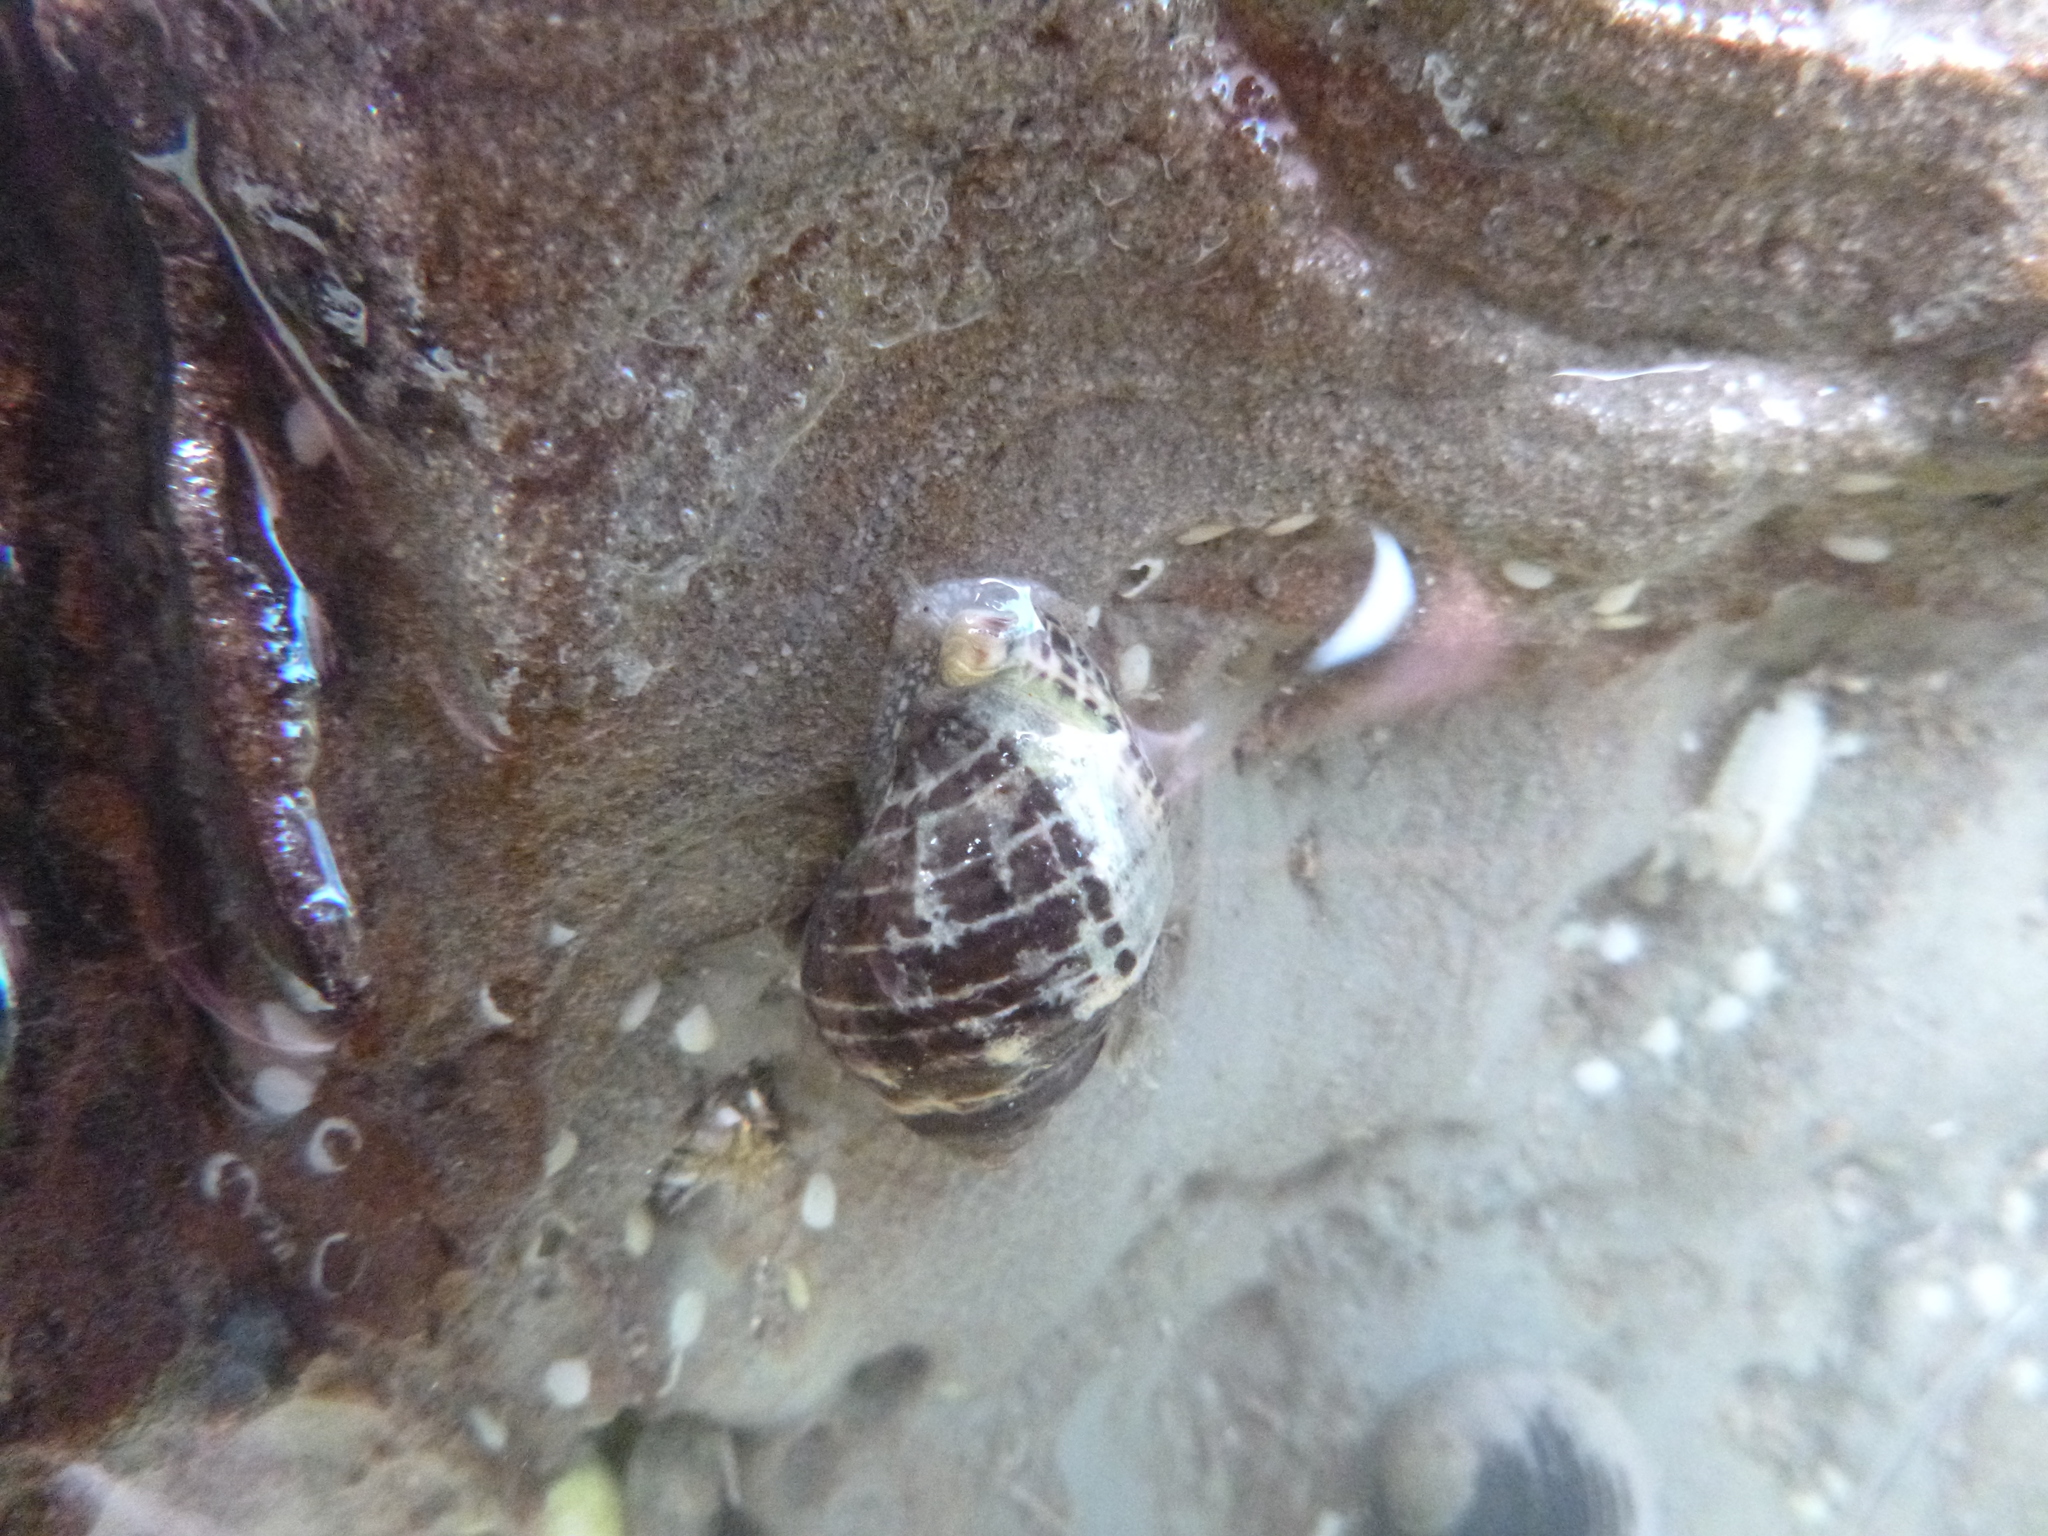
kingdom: Animalia
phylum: Mollusca
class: Gastropoda
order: Neogastropoda
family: Muricidae
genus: Haustrum
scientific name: Haustrum scobina
